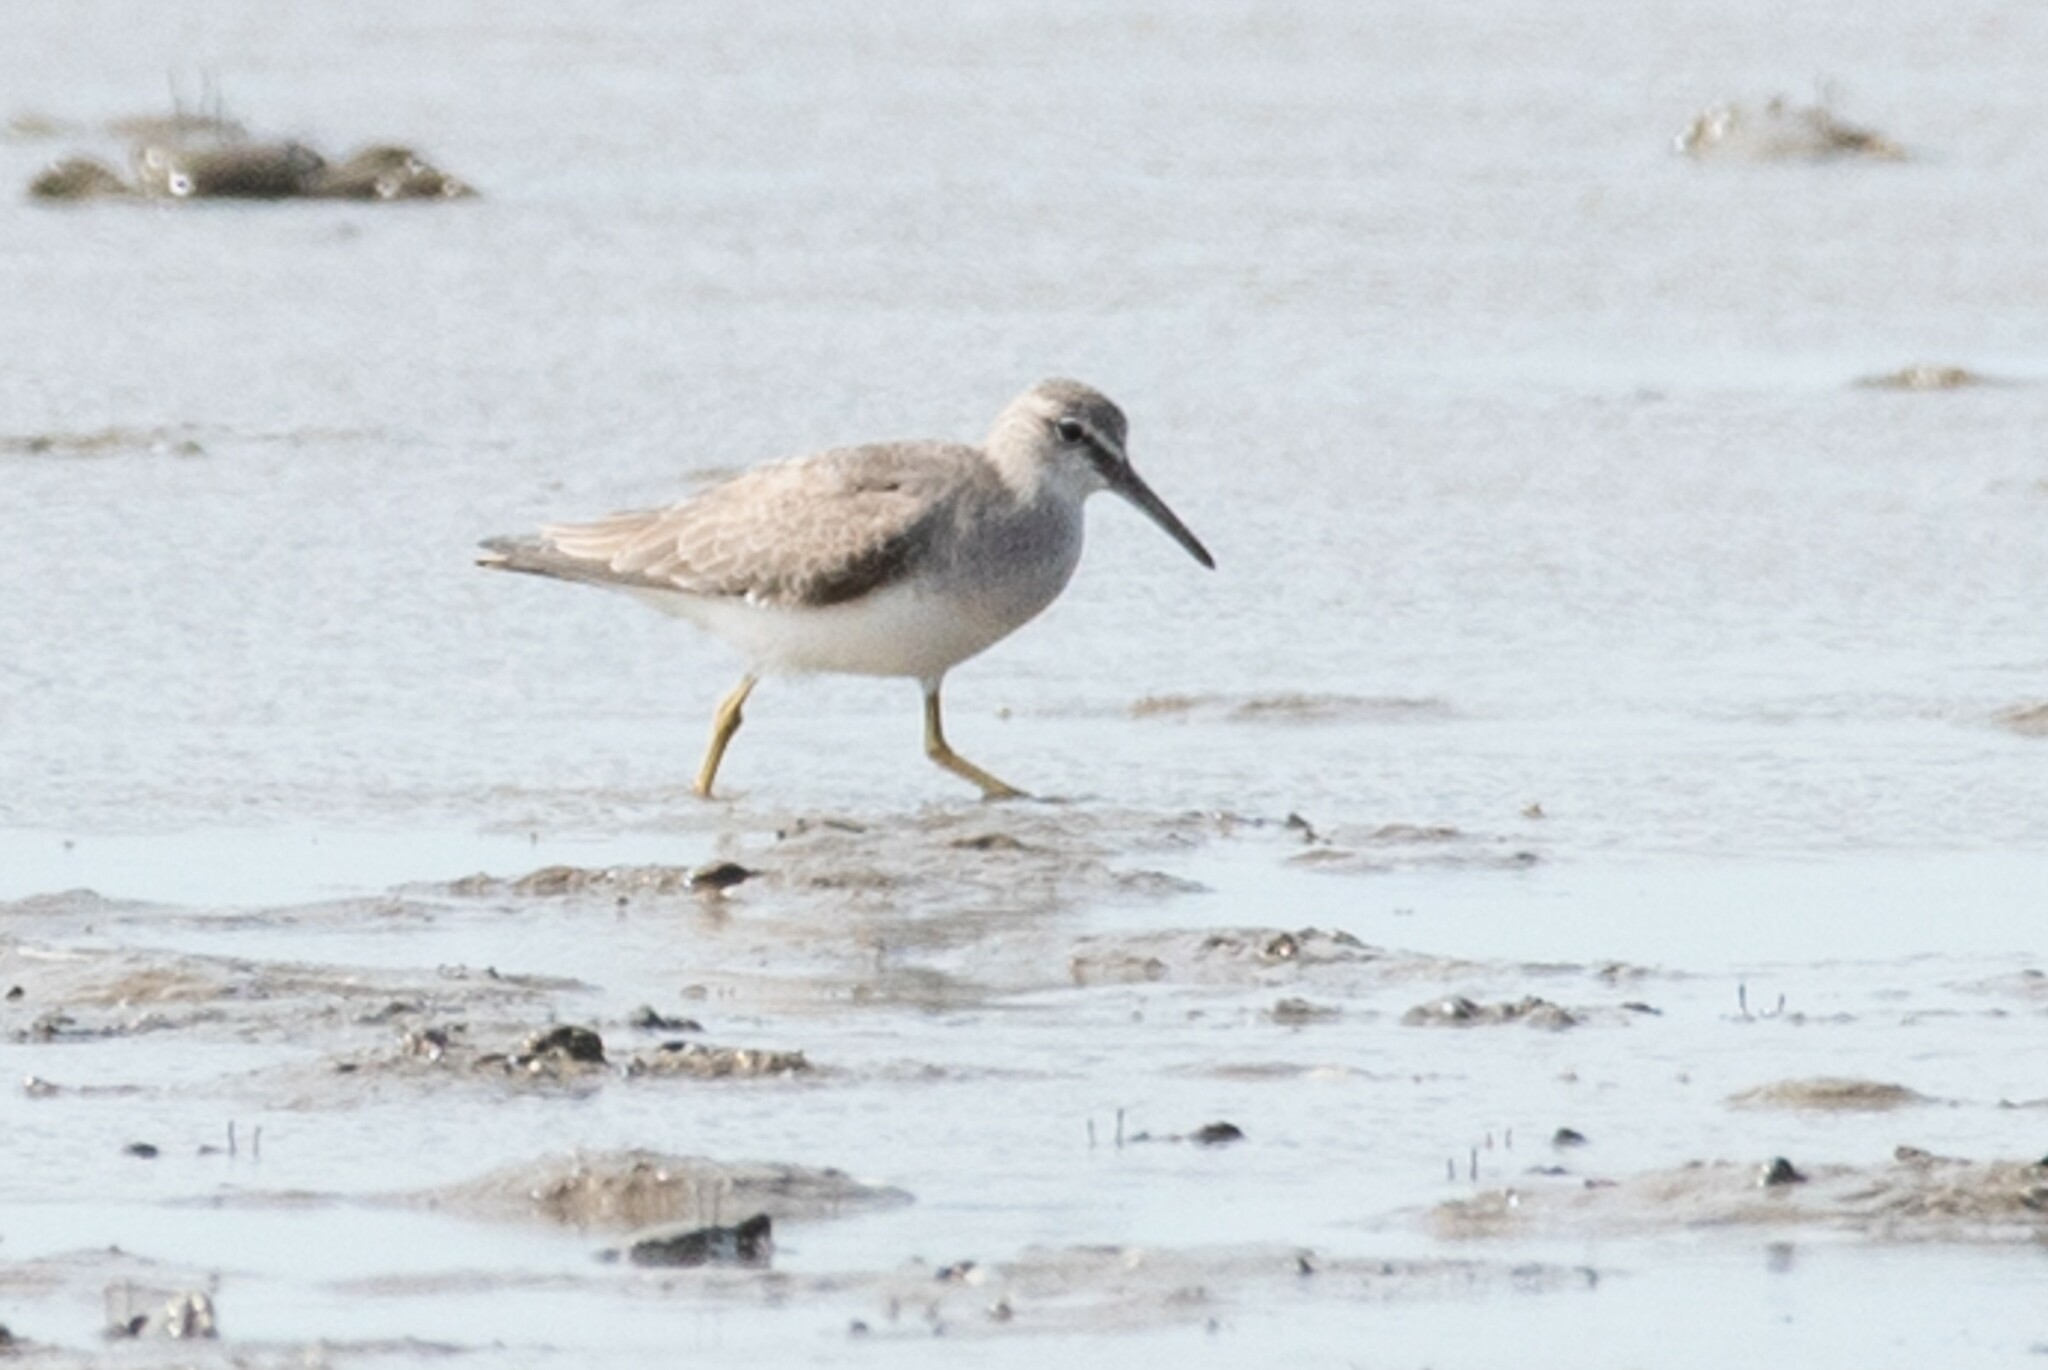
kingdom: Animalia
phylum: Chordata
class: Aves
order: Charadriiformes
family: Scolopacidae
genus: Tringa
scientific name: Tringa brevipes
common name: Grey-tailed tattler
